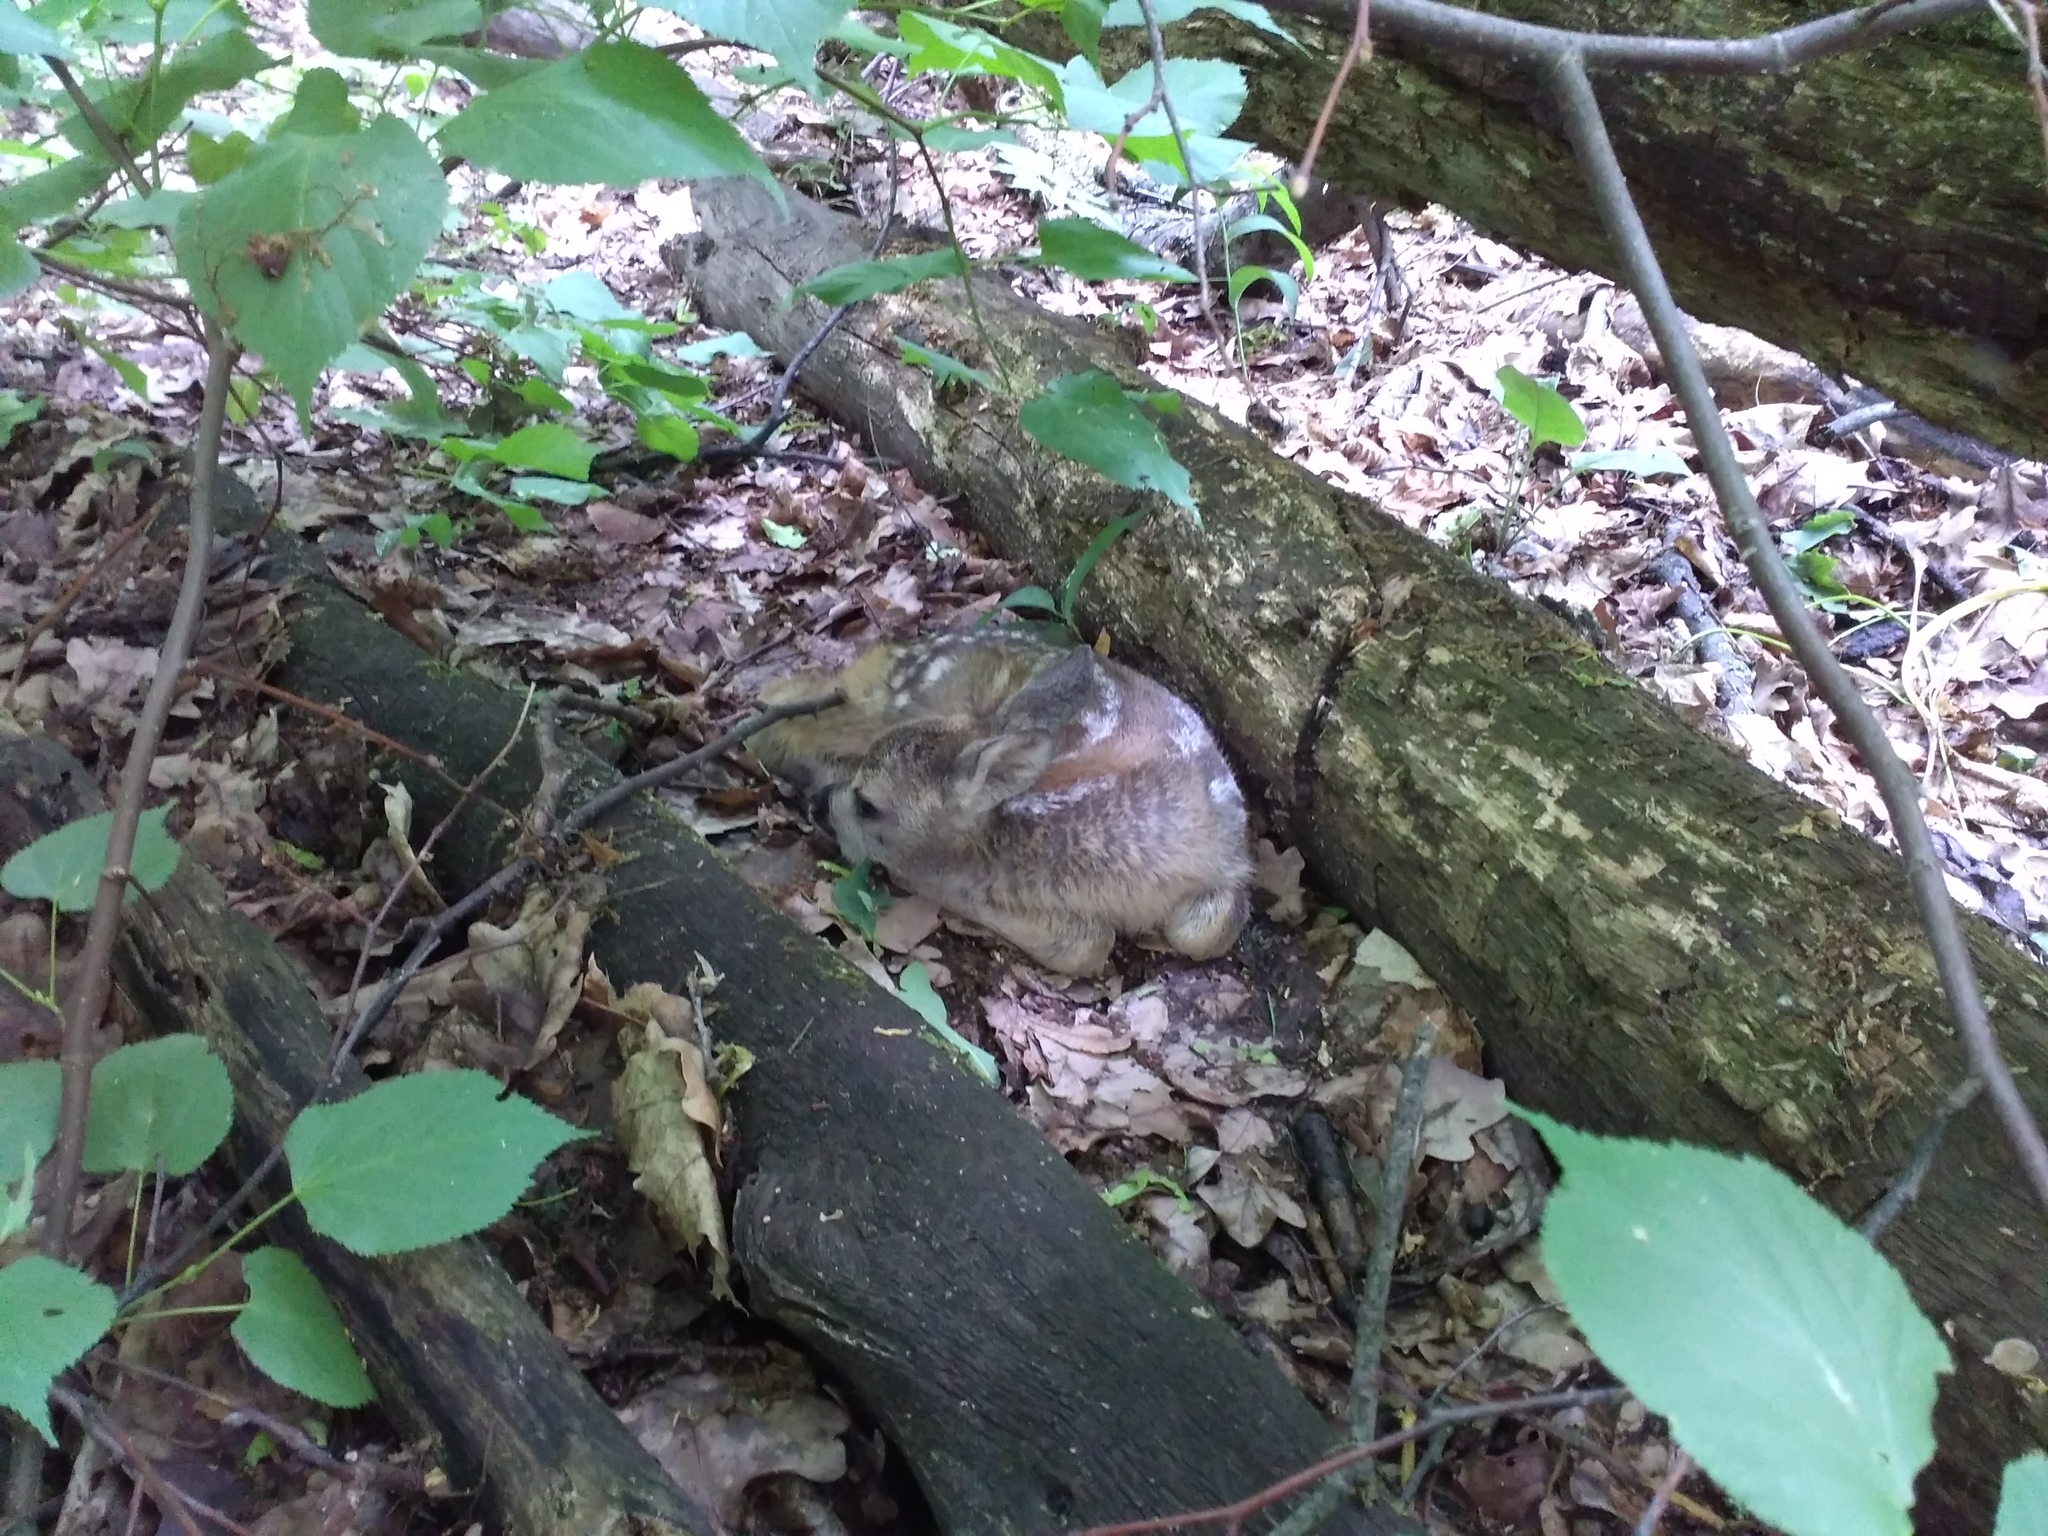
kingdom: Animalia
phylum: Chordata
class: Mammalia
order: Artiodactyla
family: Cervidae
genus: Capreolus
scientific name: Capreolus capreolus
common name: Western roe deer
